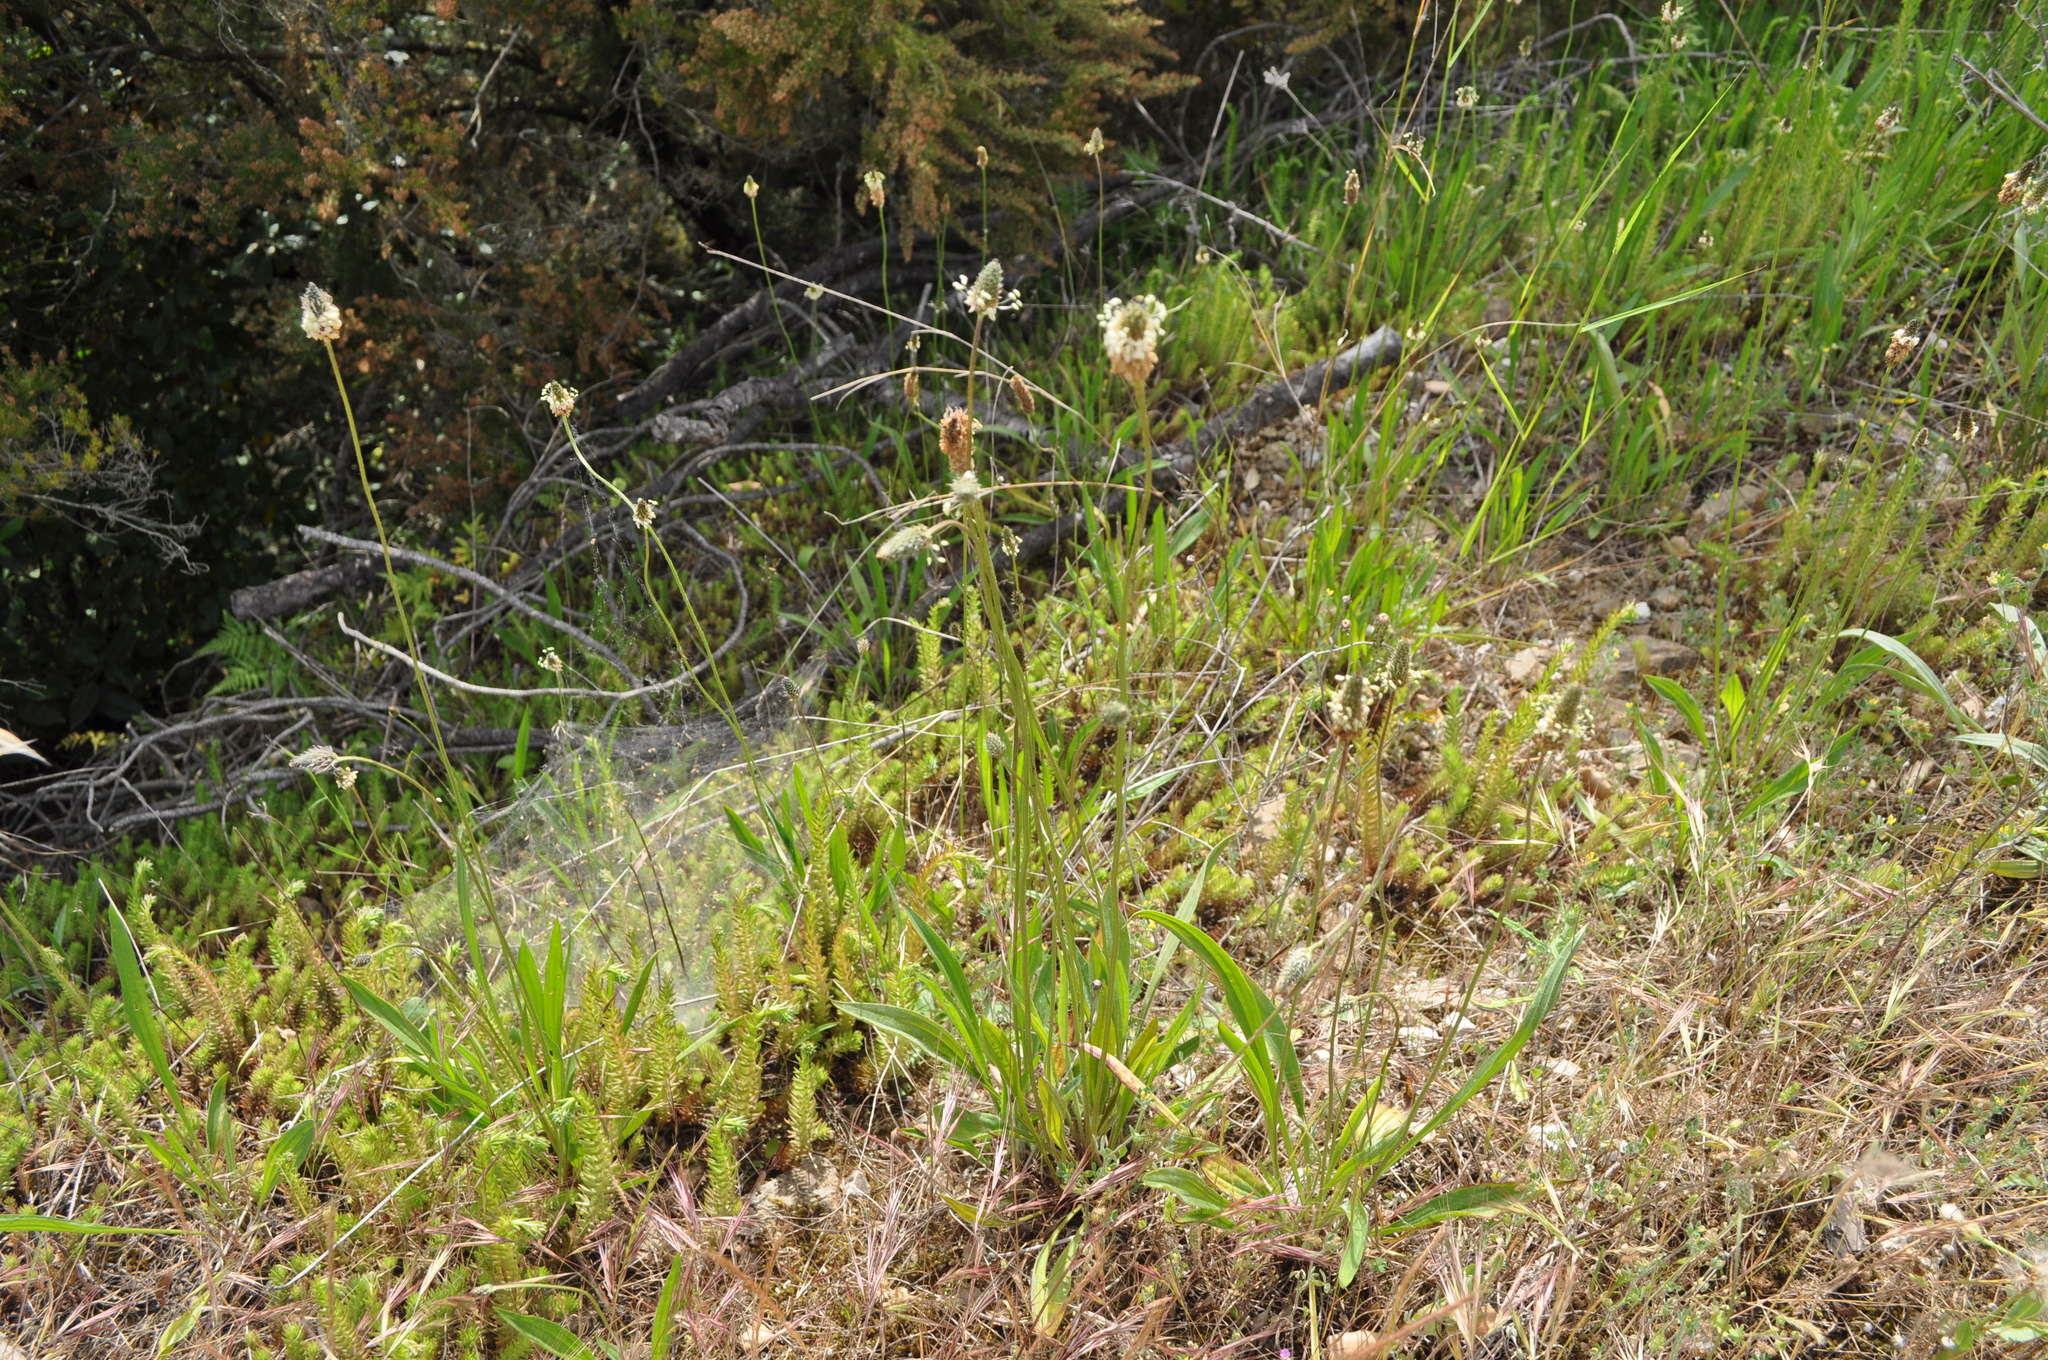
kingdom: Plantae
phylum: Tracheophyta
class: Magnoliopsida
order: Lamiales
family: Plantaginaceae
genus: Plantago
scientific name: Plantago lanceolata
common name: Ribwort plantain
